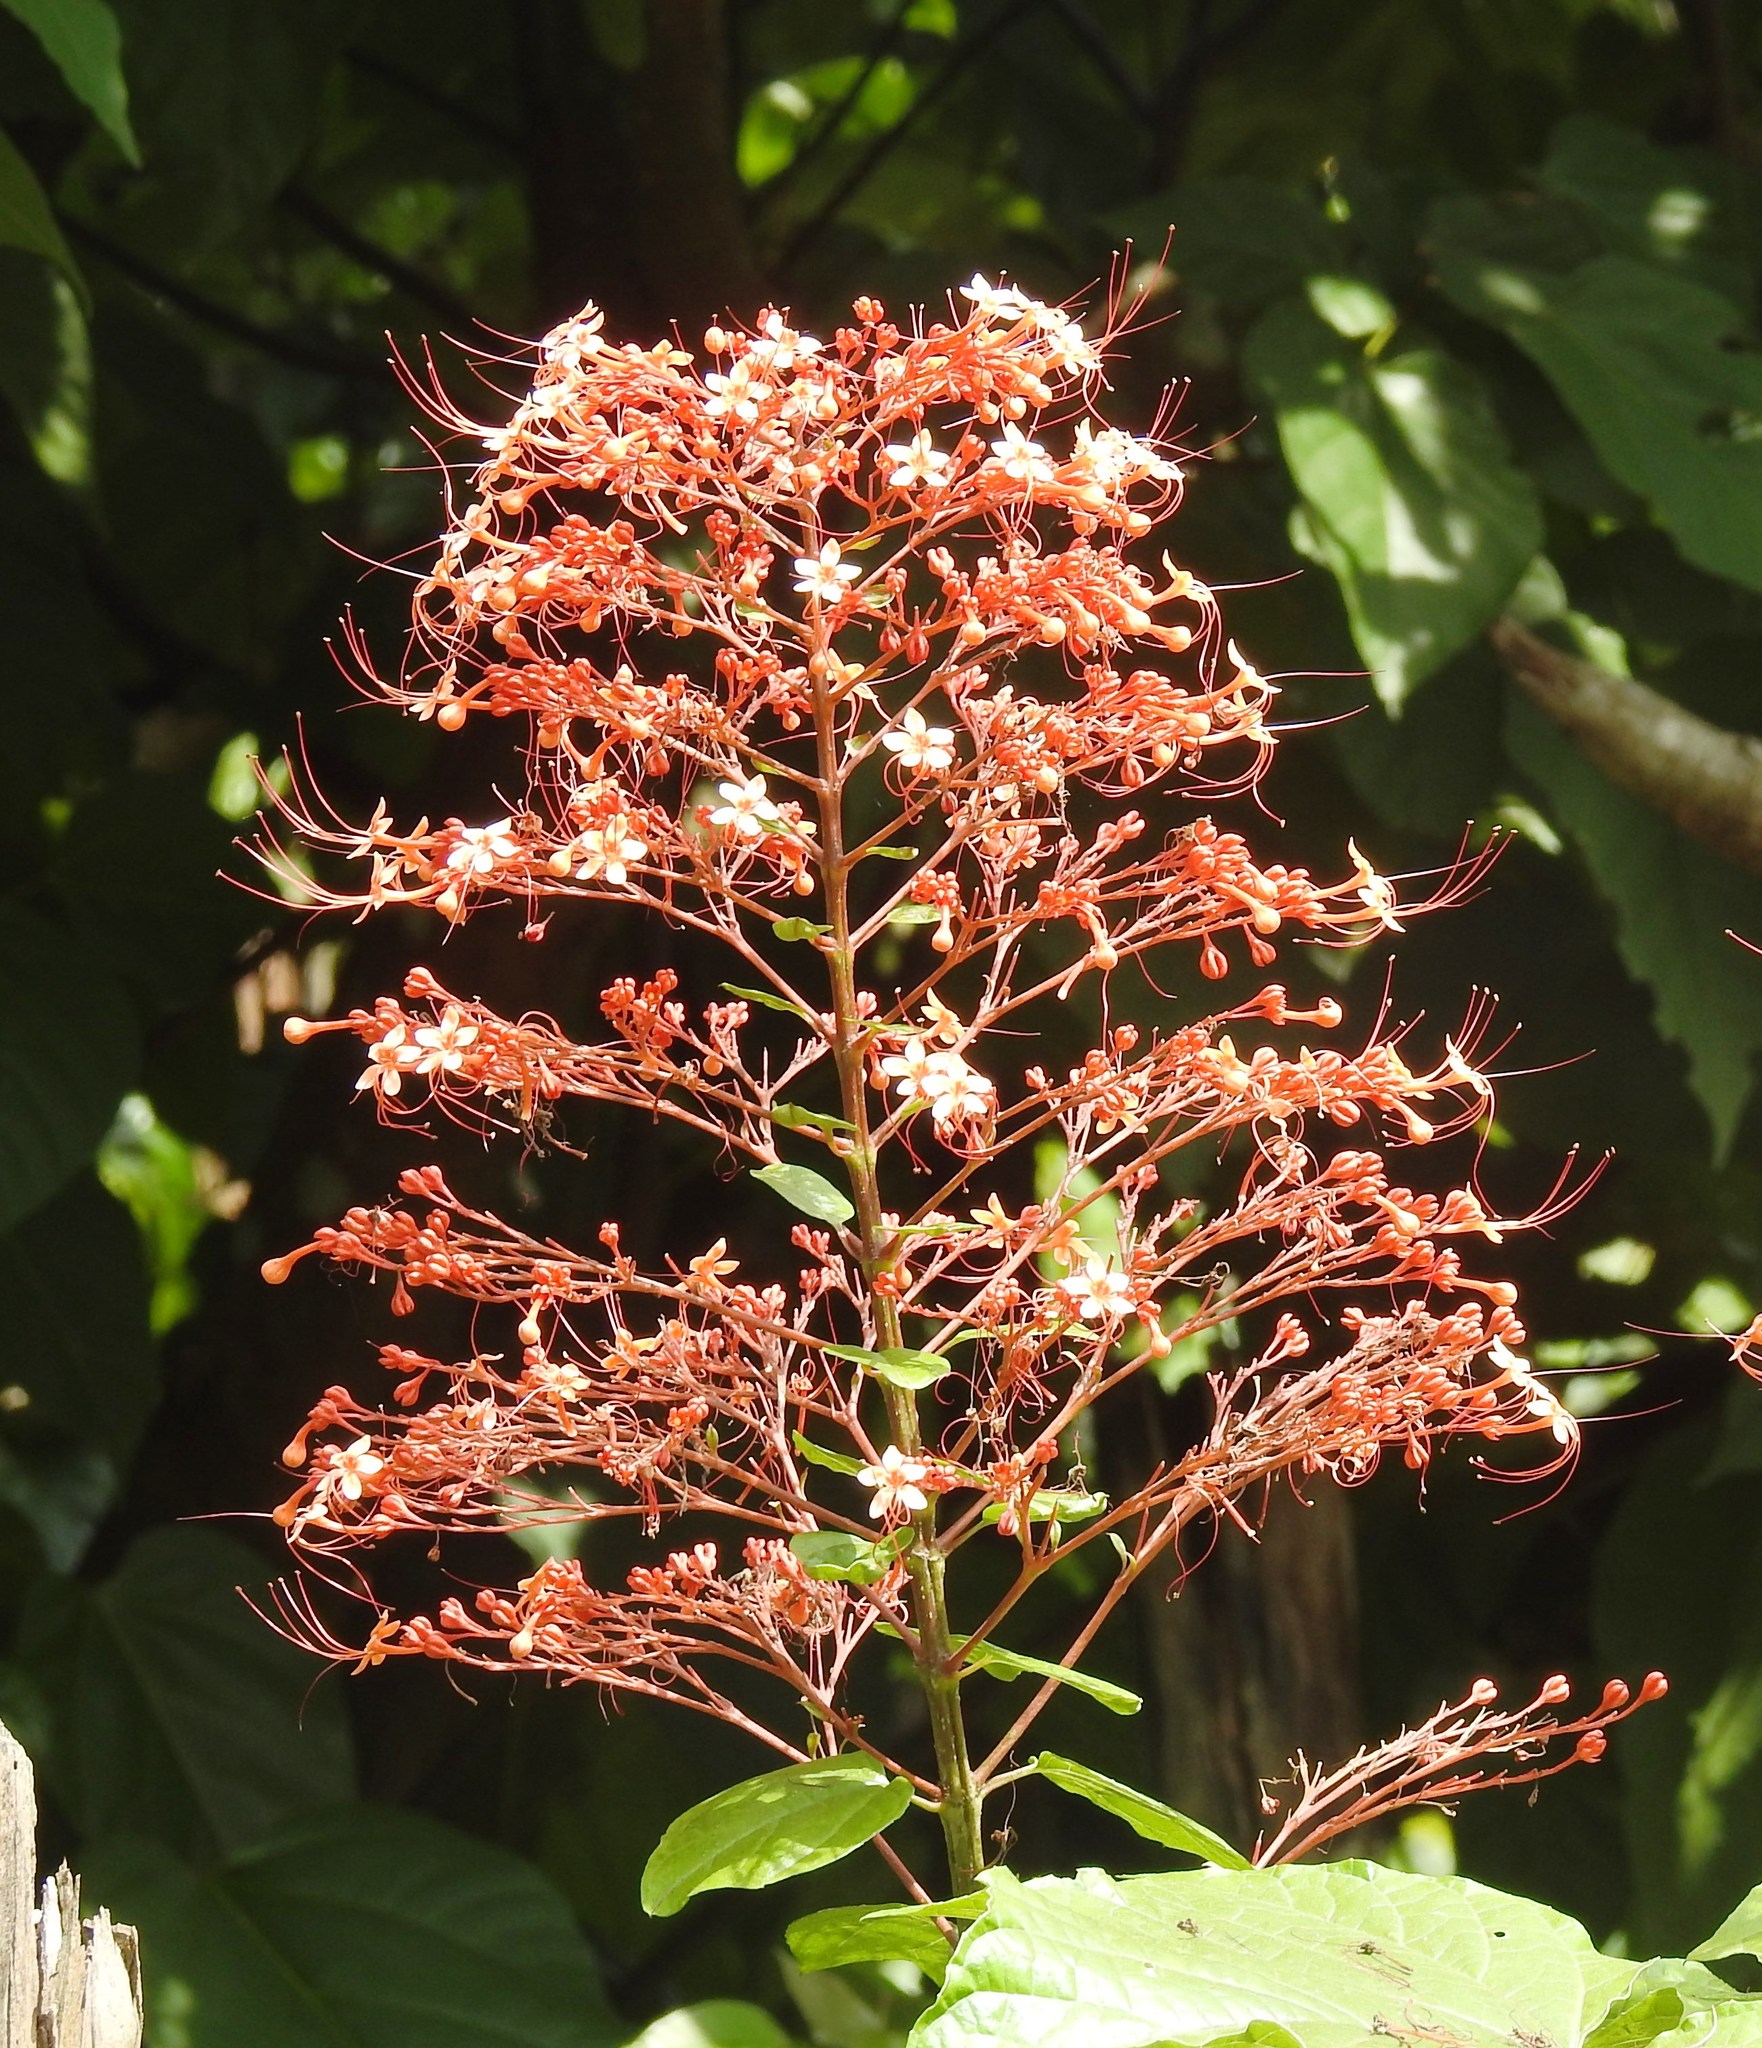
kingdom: Plantae
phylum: Tracheophyta
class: Magnoliopsida
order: Lamiales
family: Lamiaceae
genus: Clerodendrum
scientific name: Clerodendrum paniculatum
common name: Pagoda-flower
